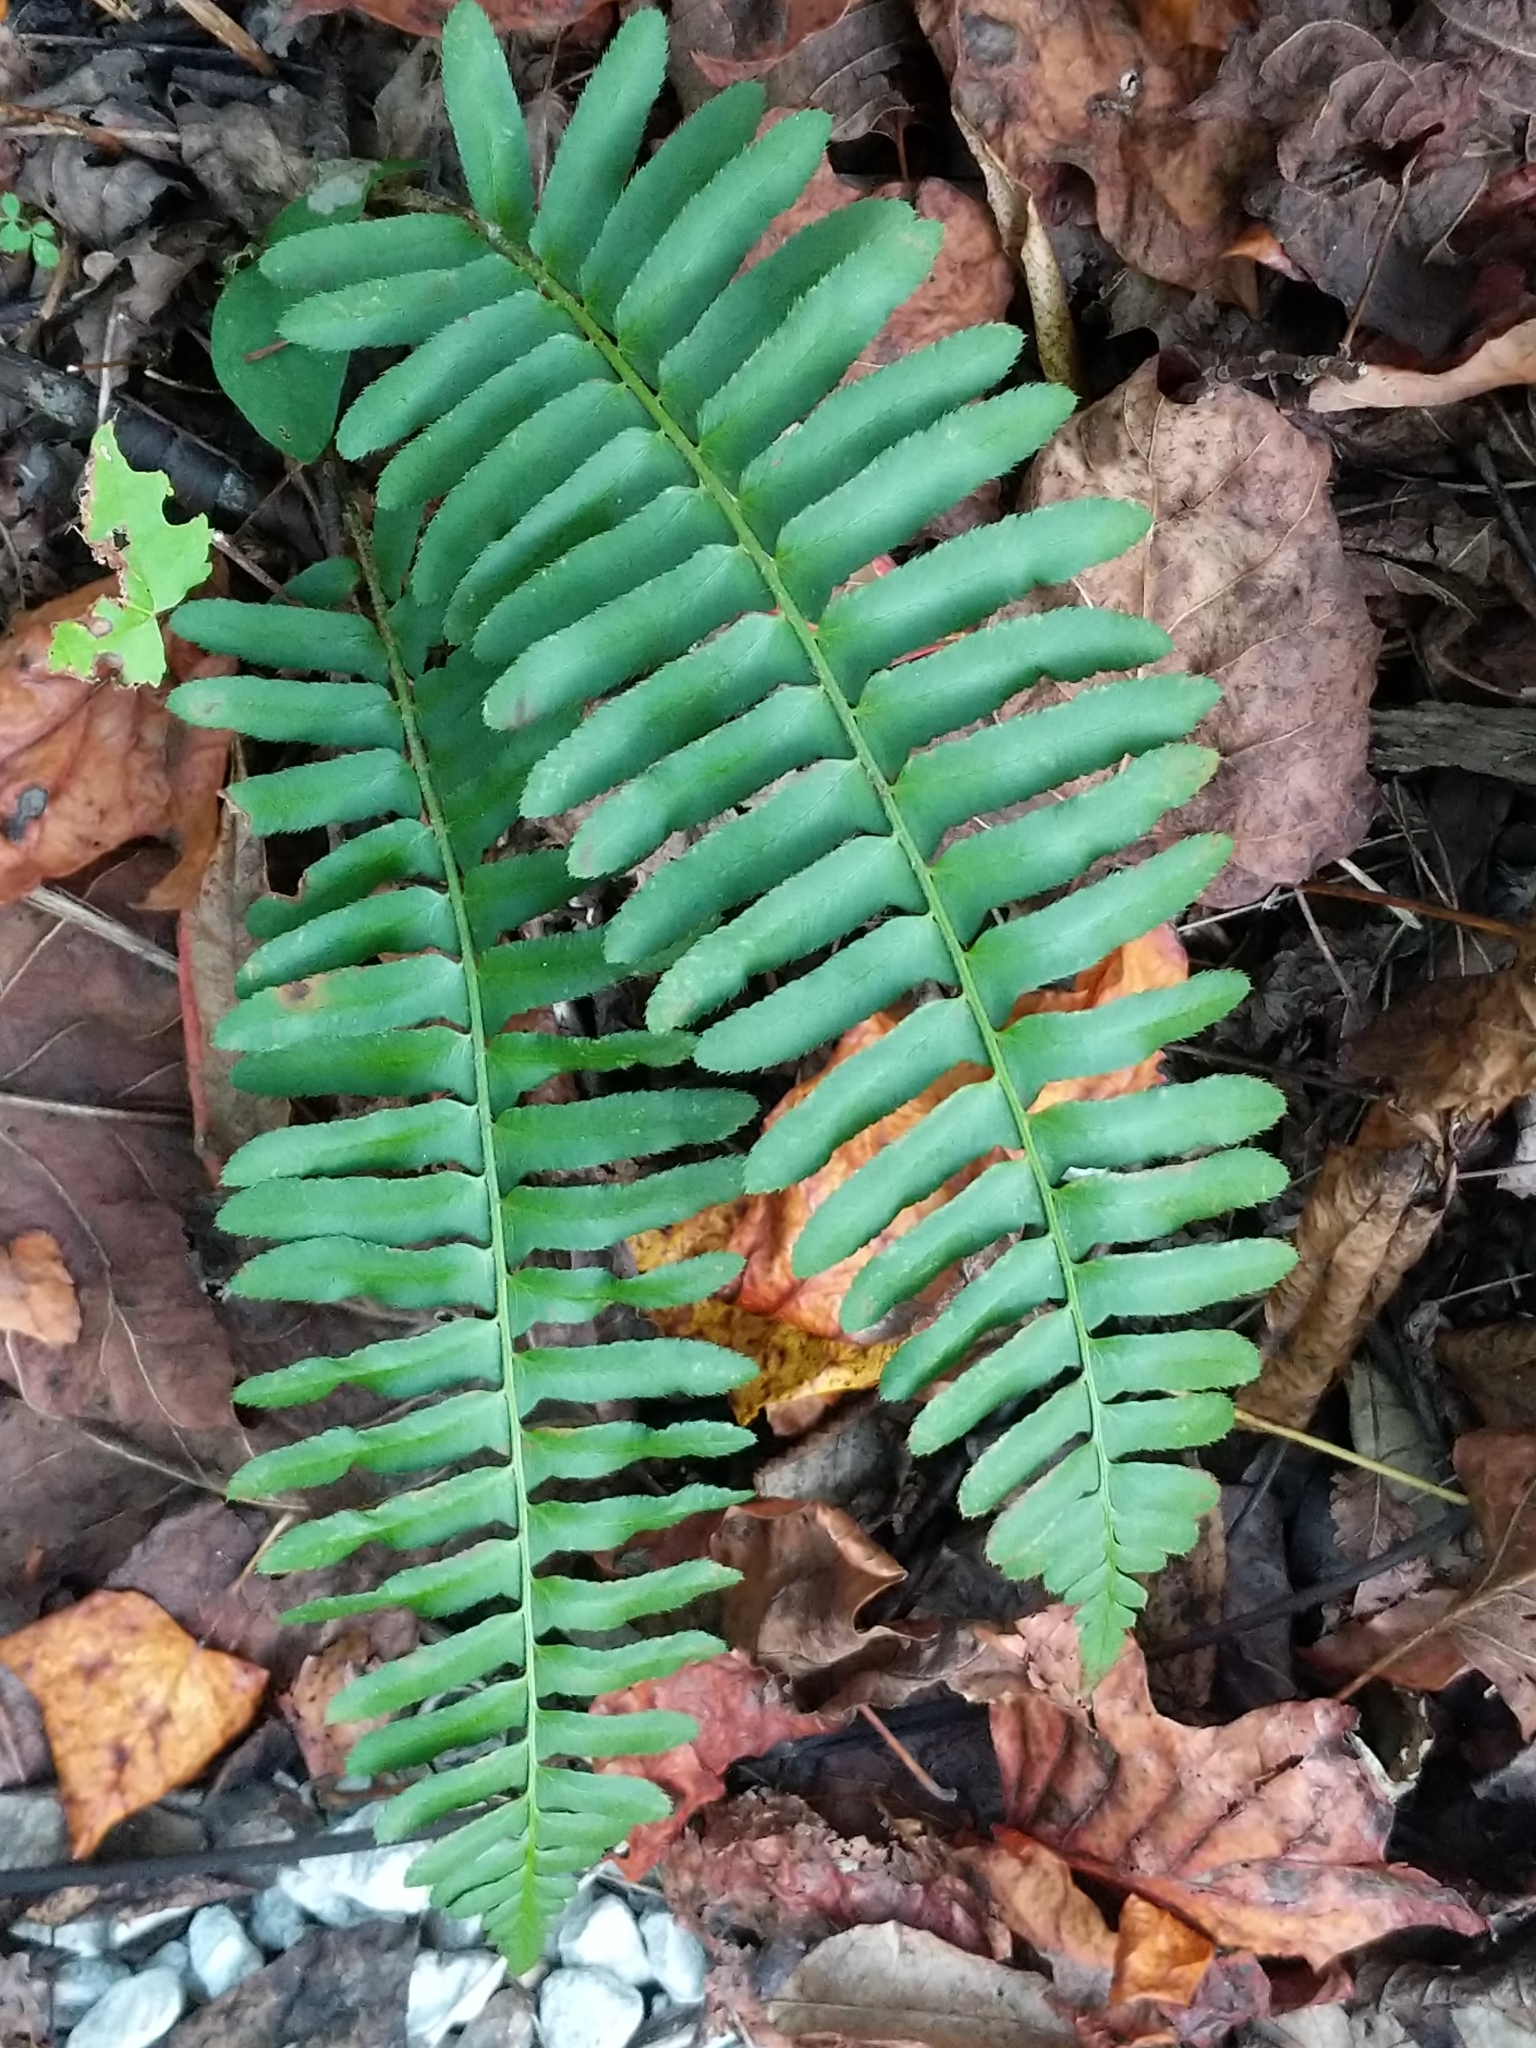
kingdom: Plantae
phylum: Tracheophyta
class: Polypodiopsida
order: Polypodiales
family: Dryopteridaceae
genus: Polystichum
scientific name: Polystichum acrostichoides
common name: Christmas fern
